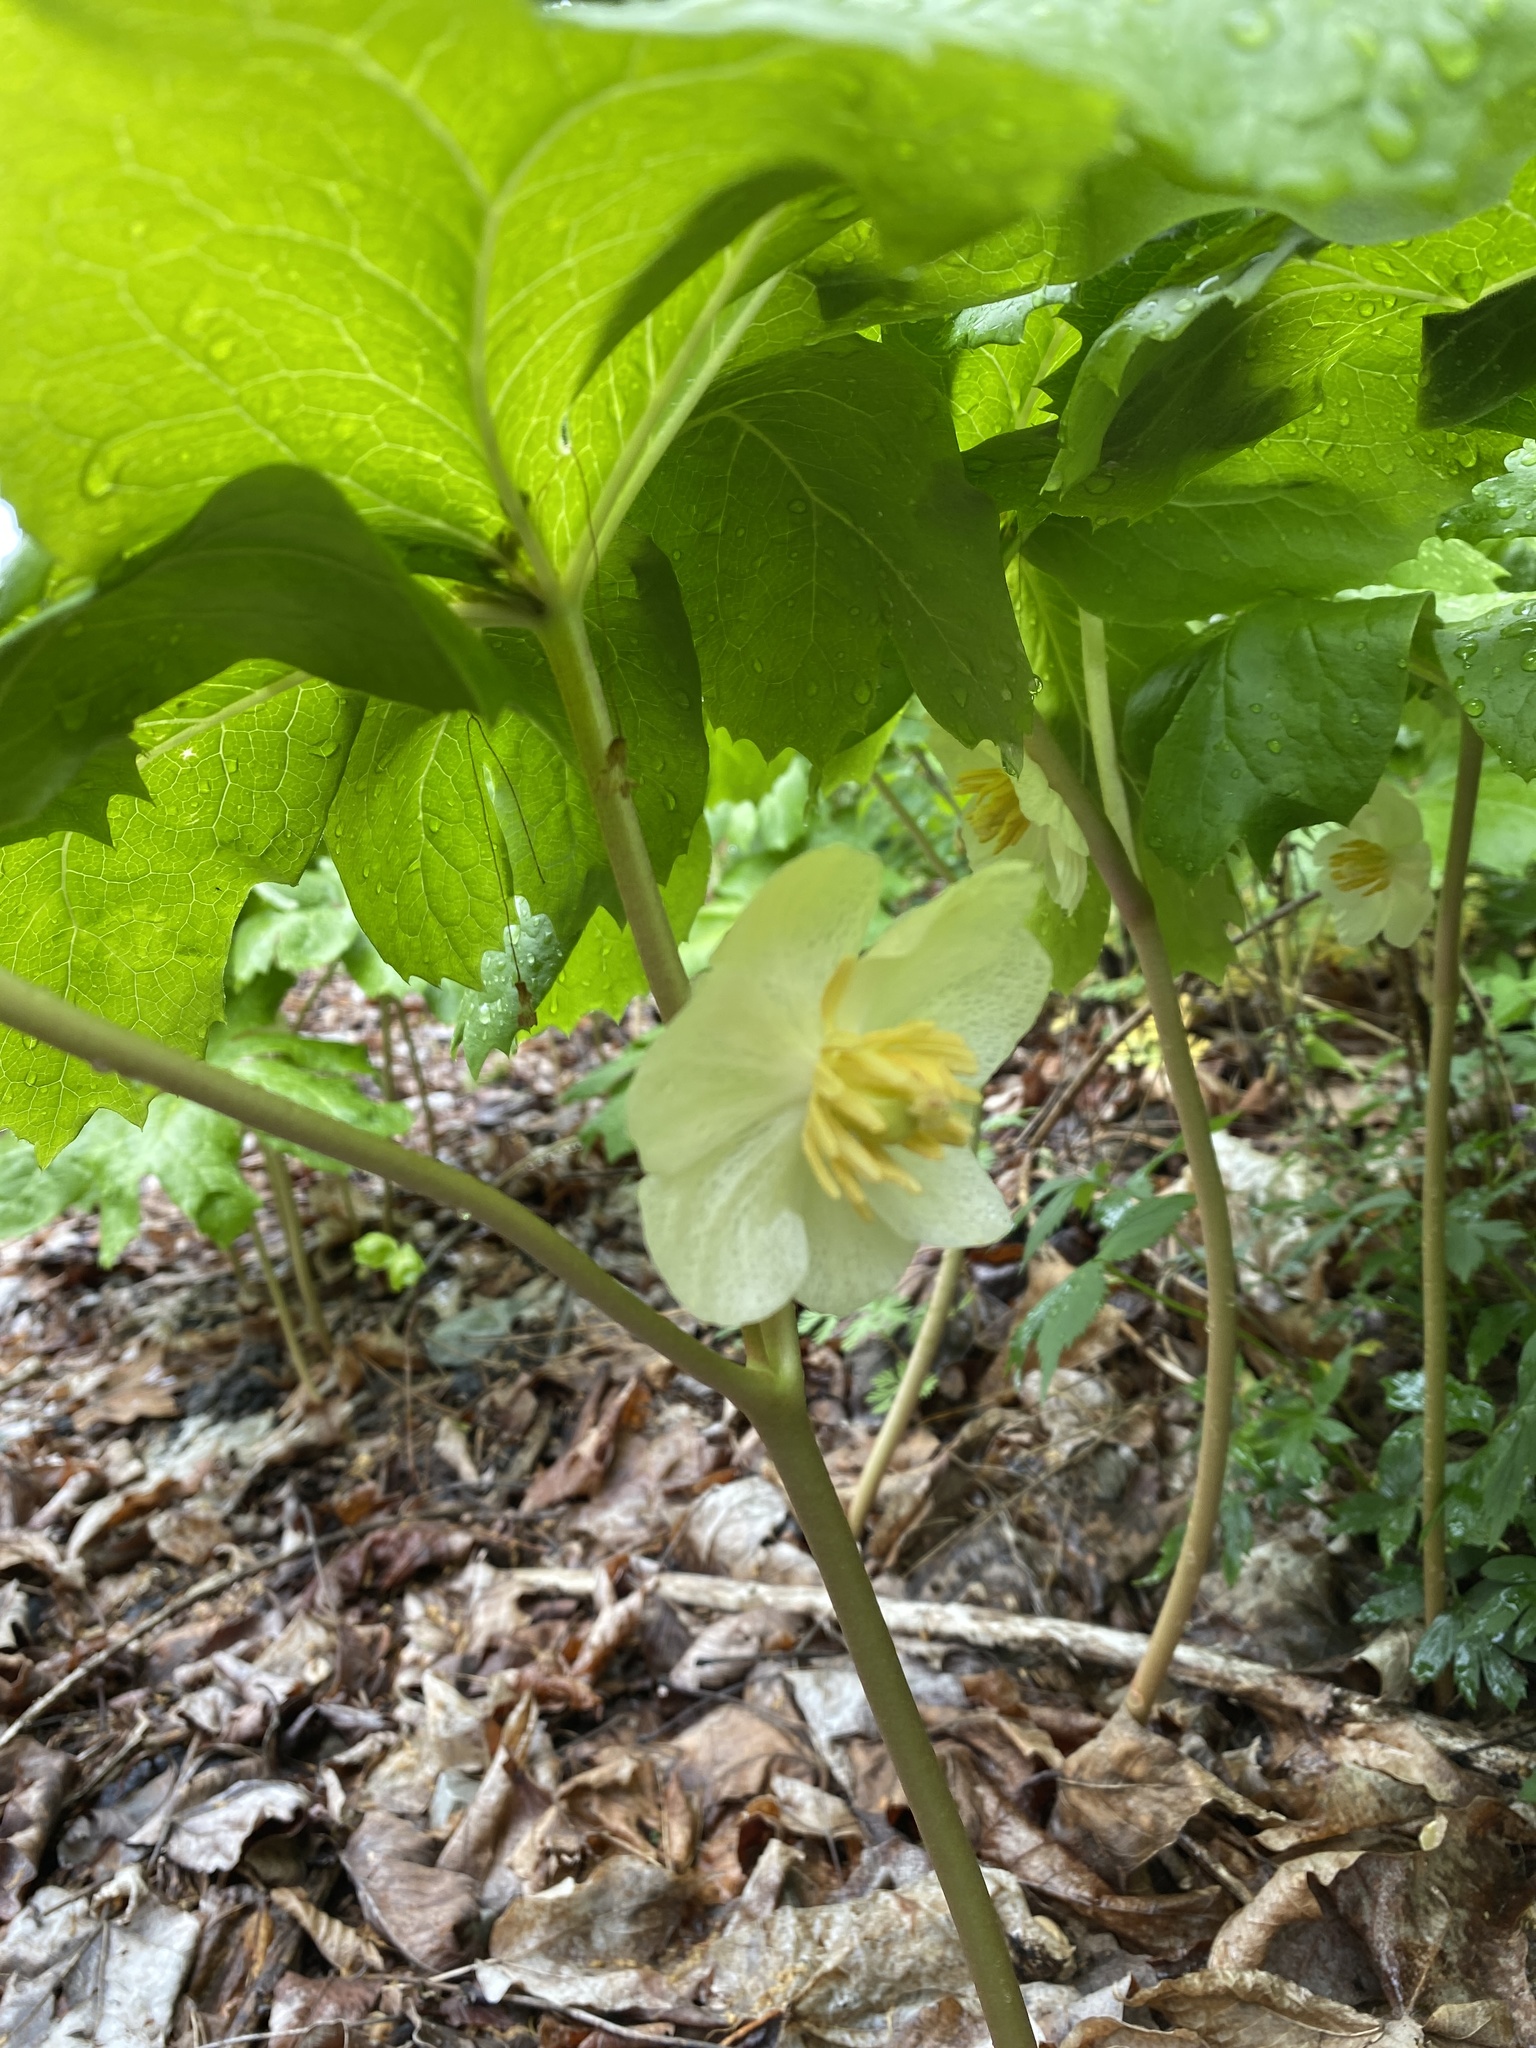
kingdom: Plantae
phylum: Tracheophyta
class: Magnoliopsida
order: Ranunculales
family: Berberidaceae
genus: Podophyllum
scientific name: Podophyllum peltatum
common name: Wild mandrake
